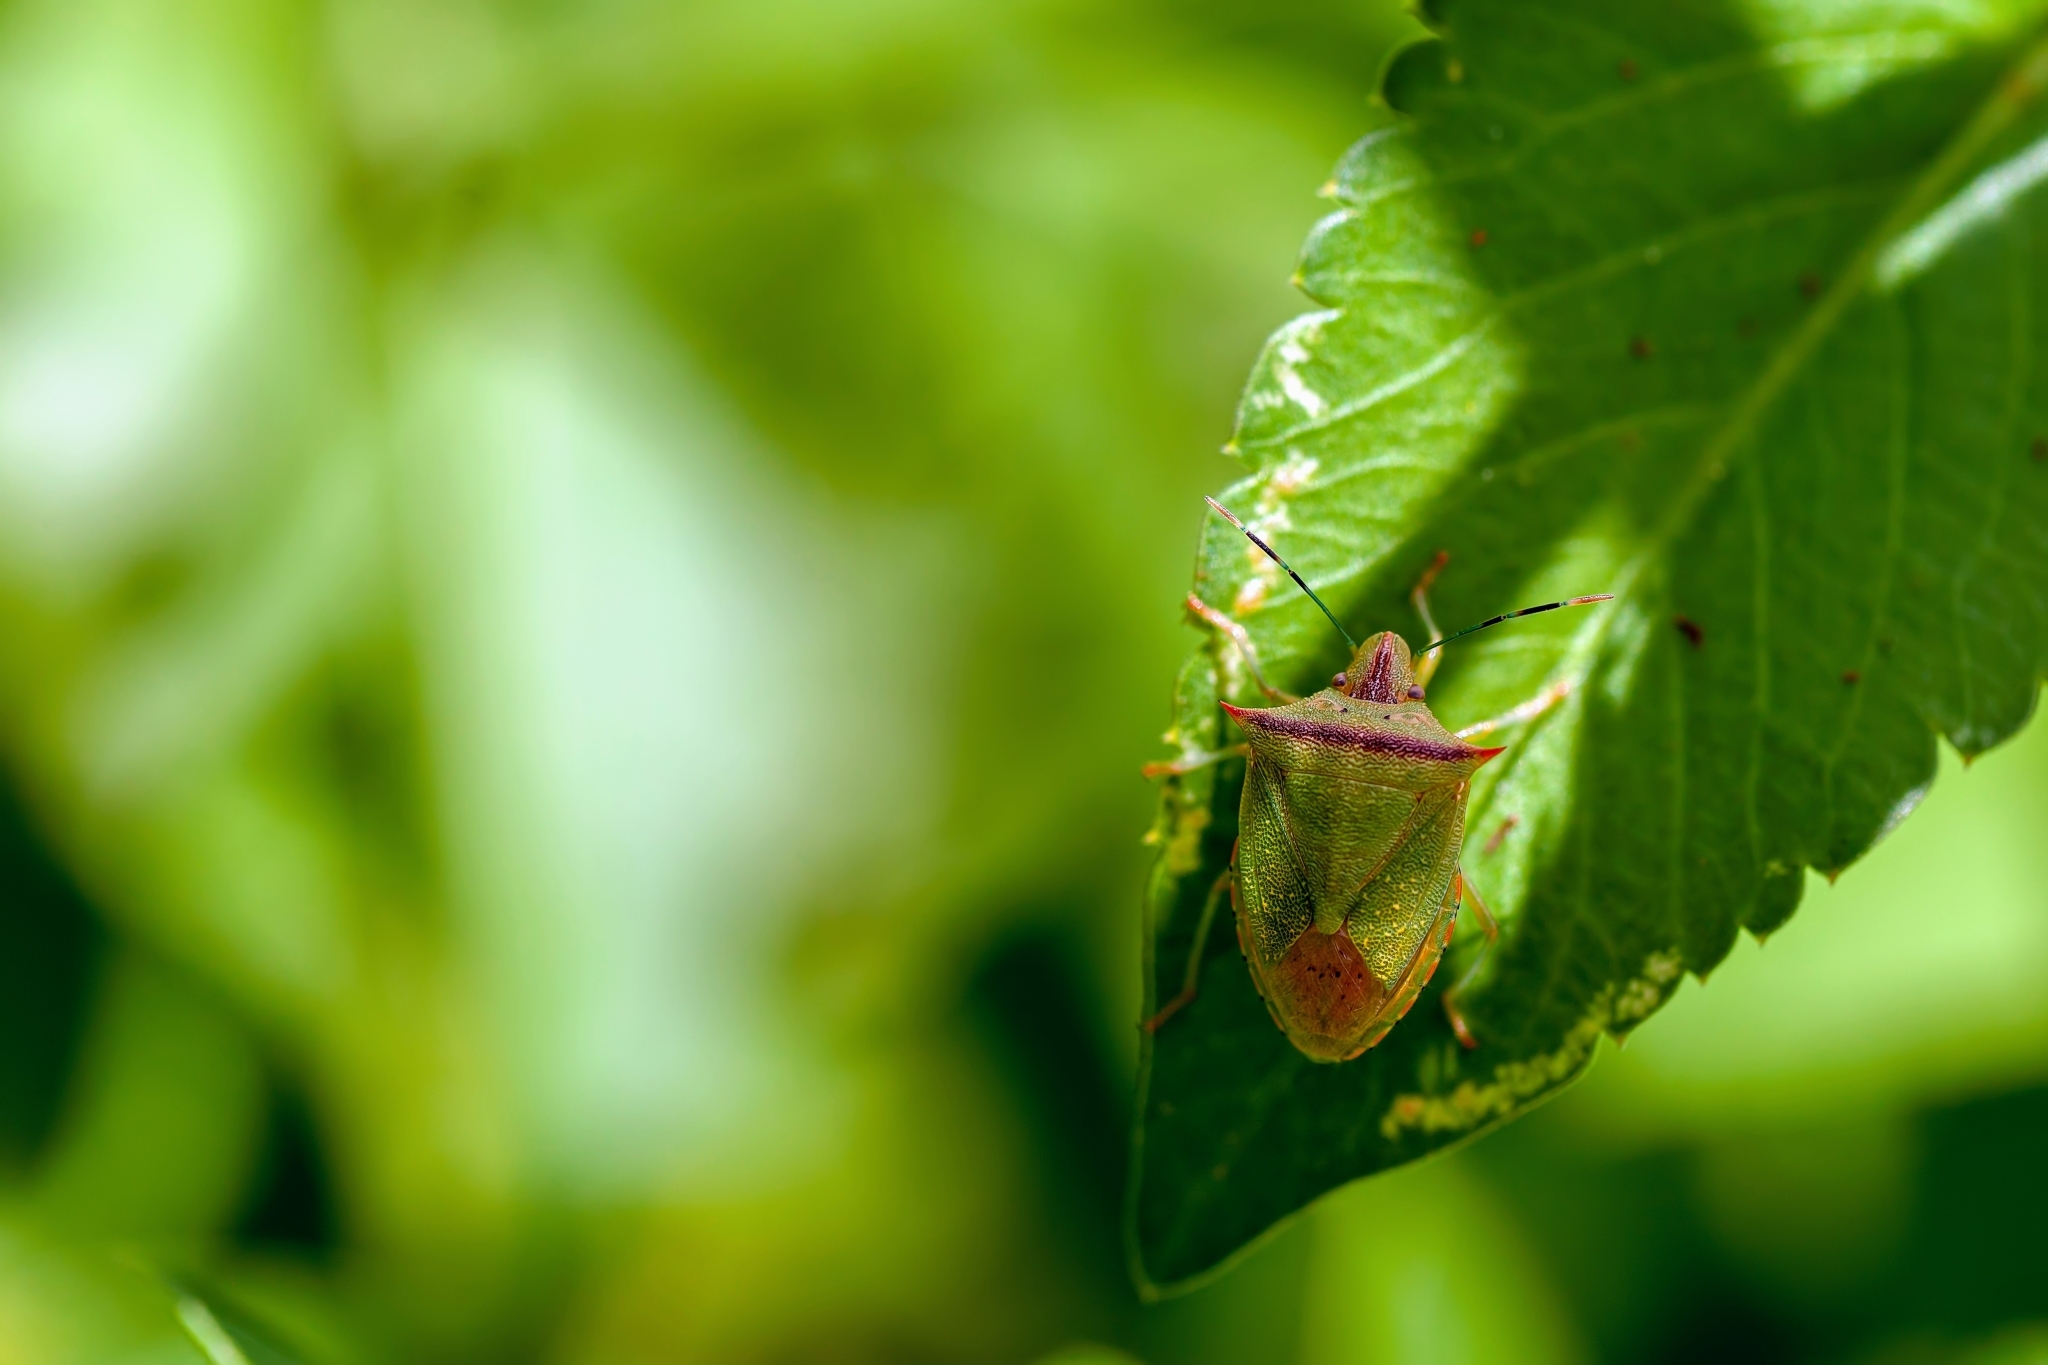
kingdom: Animalia
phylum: Arthropoda
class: Insecta
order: Hemiptera
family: Pentatomidae
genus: Thyanta
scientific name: Thyanta perditor
